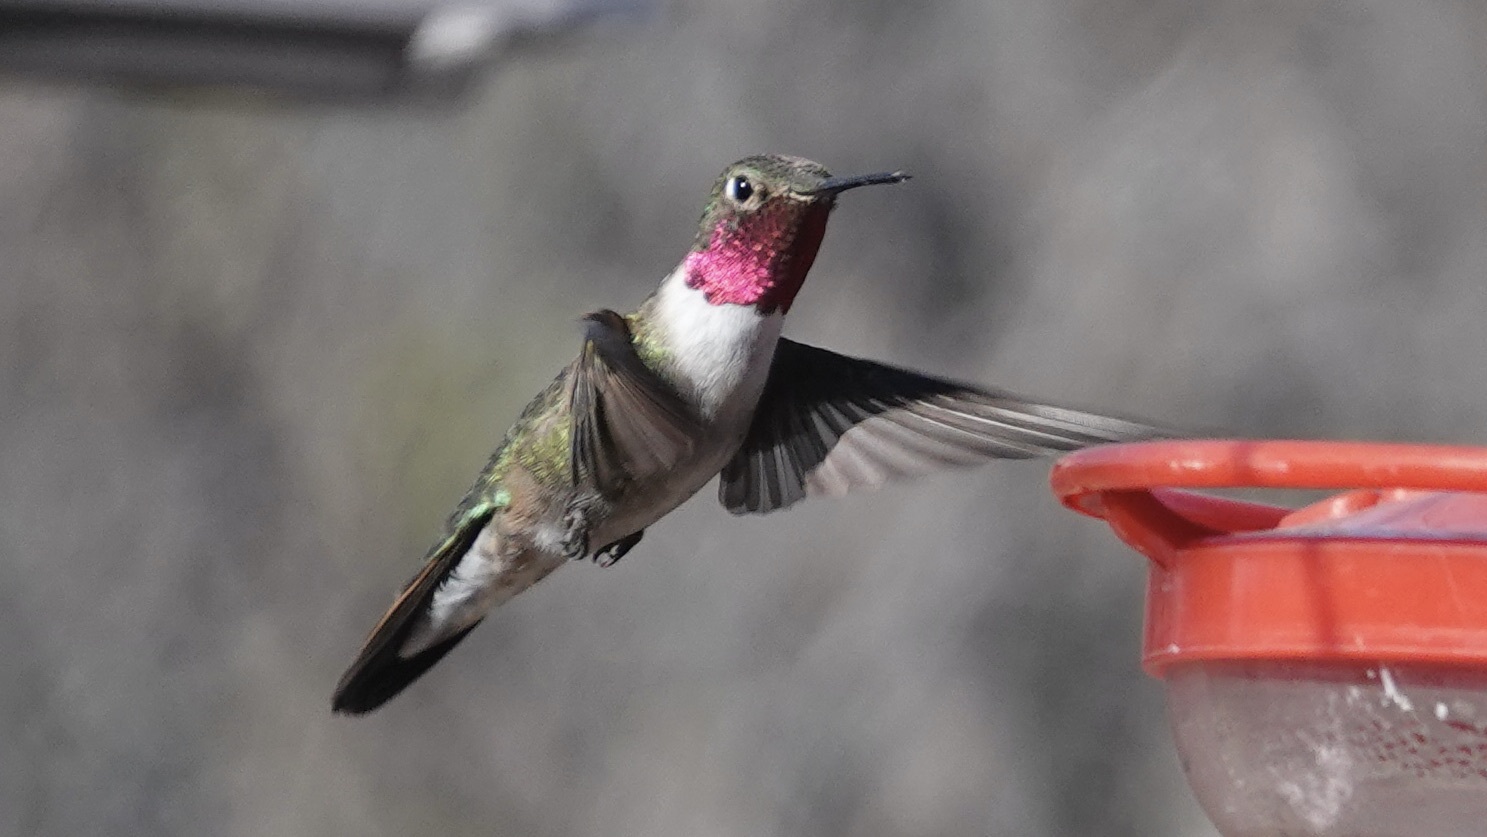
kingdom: Animalia
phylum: Chordata
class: Aves
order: Apodiformes
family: Trochilidae
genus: Selasphorus
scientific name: Selasphorus platycercus
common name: Broad-tailed hummingbird
